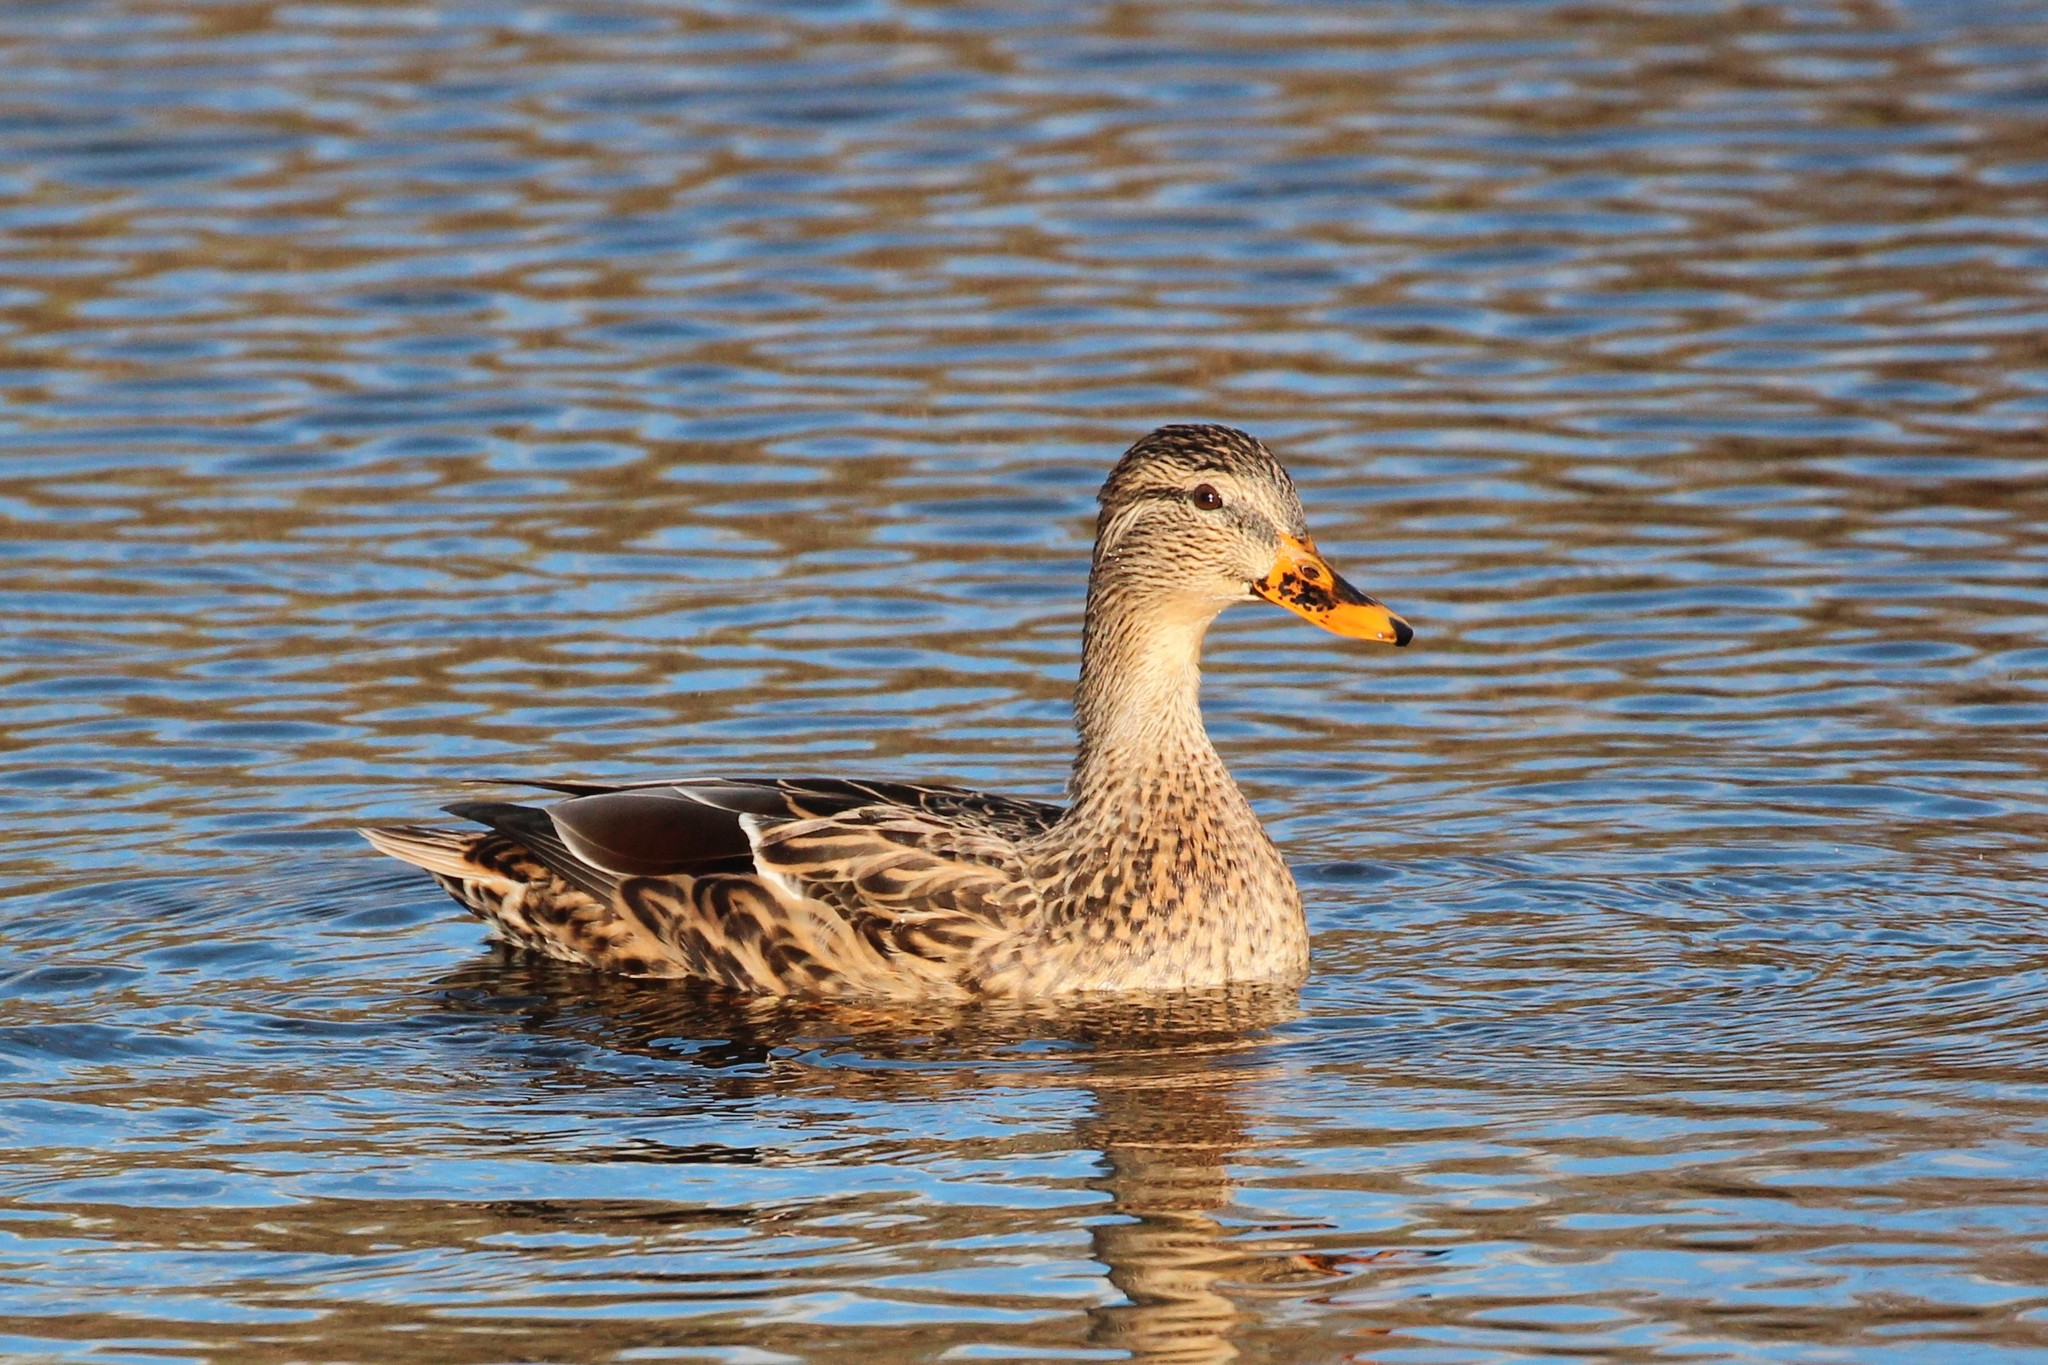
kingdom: Animalia
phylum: Chordata
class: Aves
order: Anseriformes
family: Anatidae
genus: Anas
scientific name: Anas platyrhynchos
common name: Mallard
